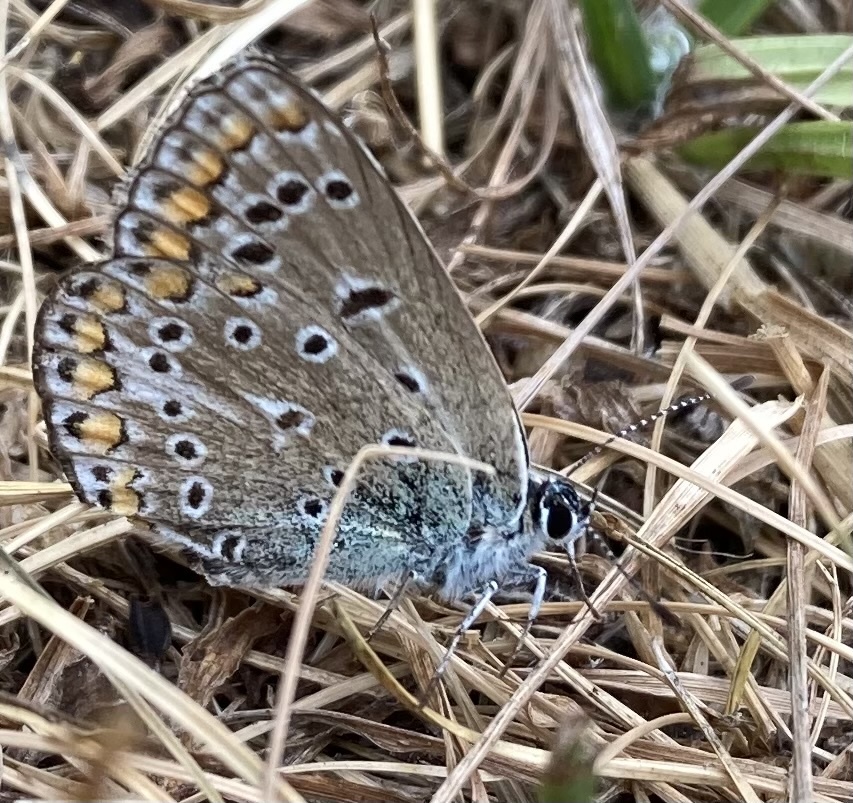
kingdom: Animalia
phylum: Arthropoda
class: Insecta
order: Lepidoptera
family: Lycaenidae
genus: Polyommatus
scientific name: Polyommatus icarus
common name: Common blue
